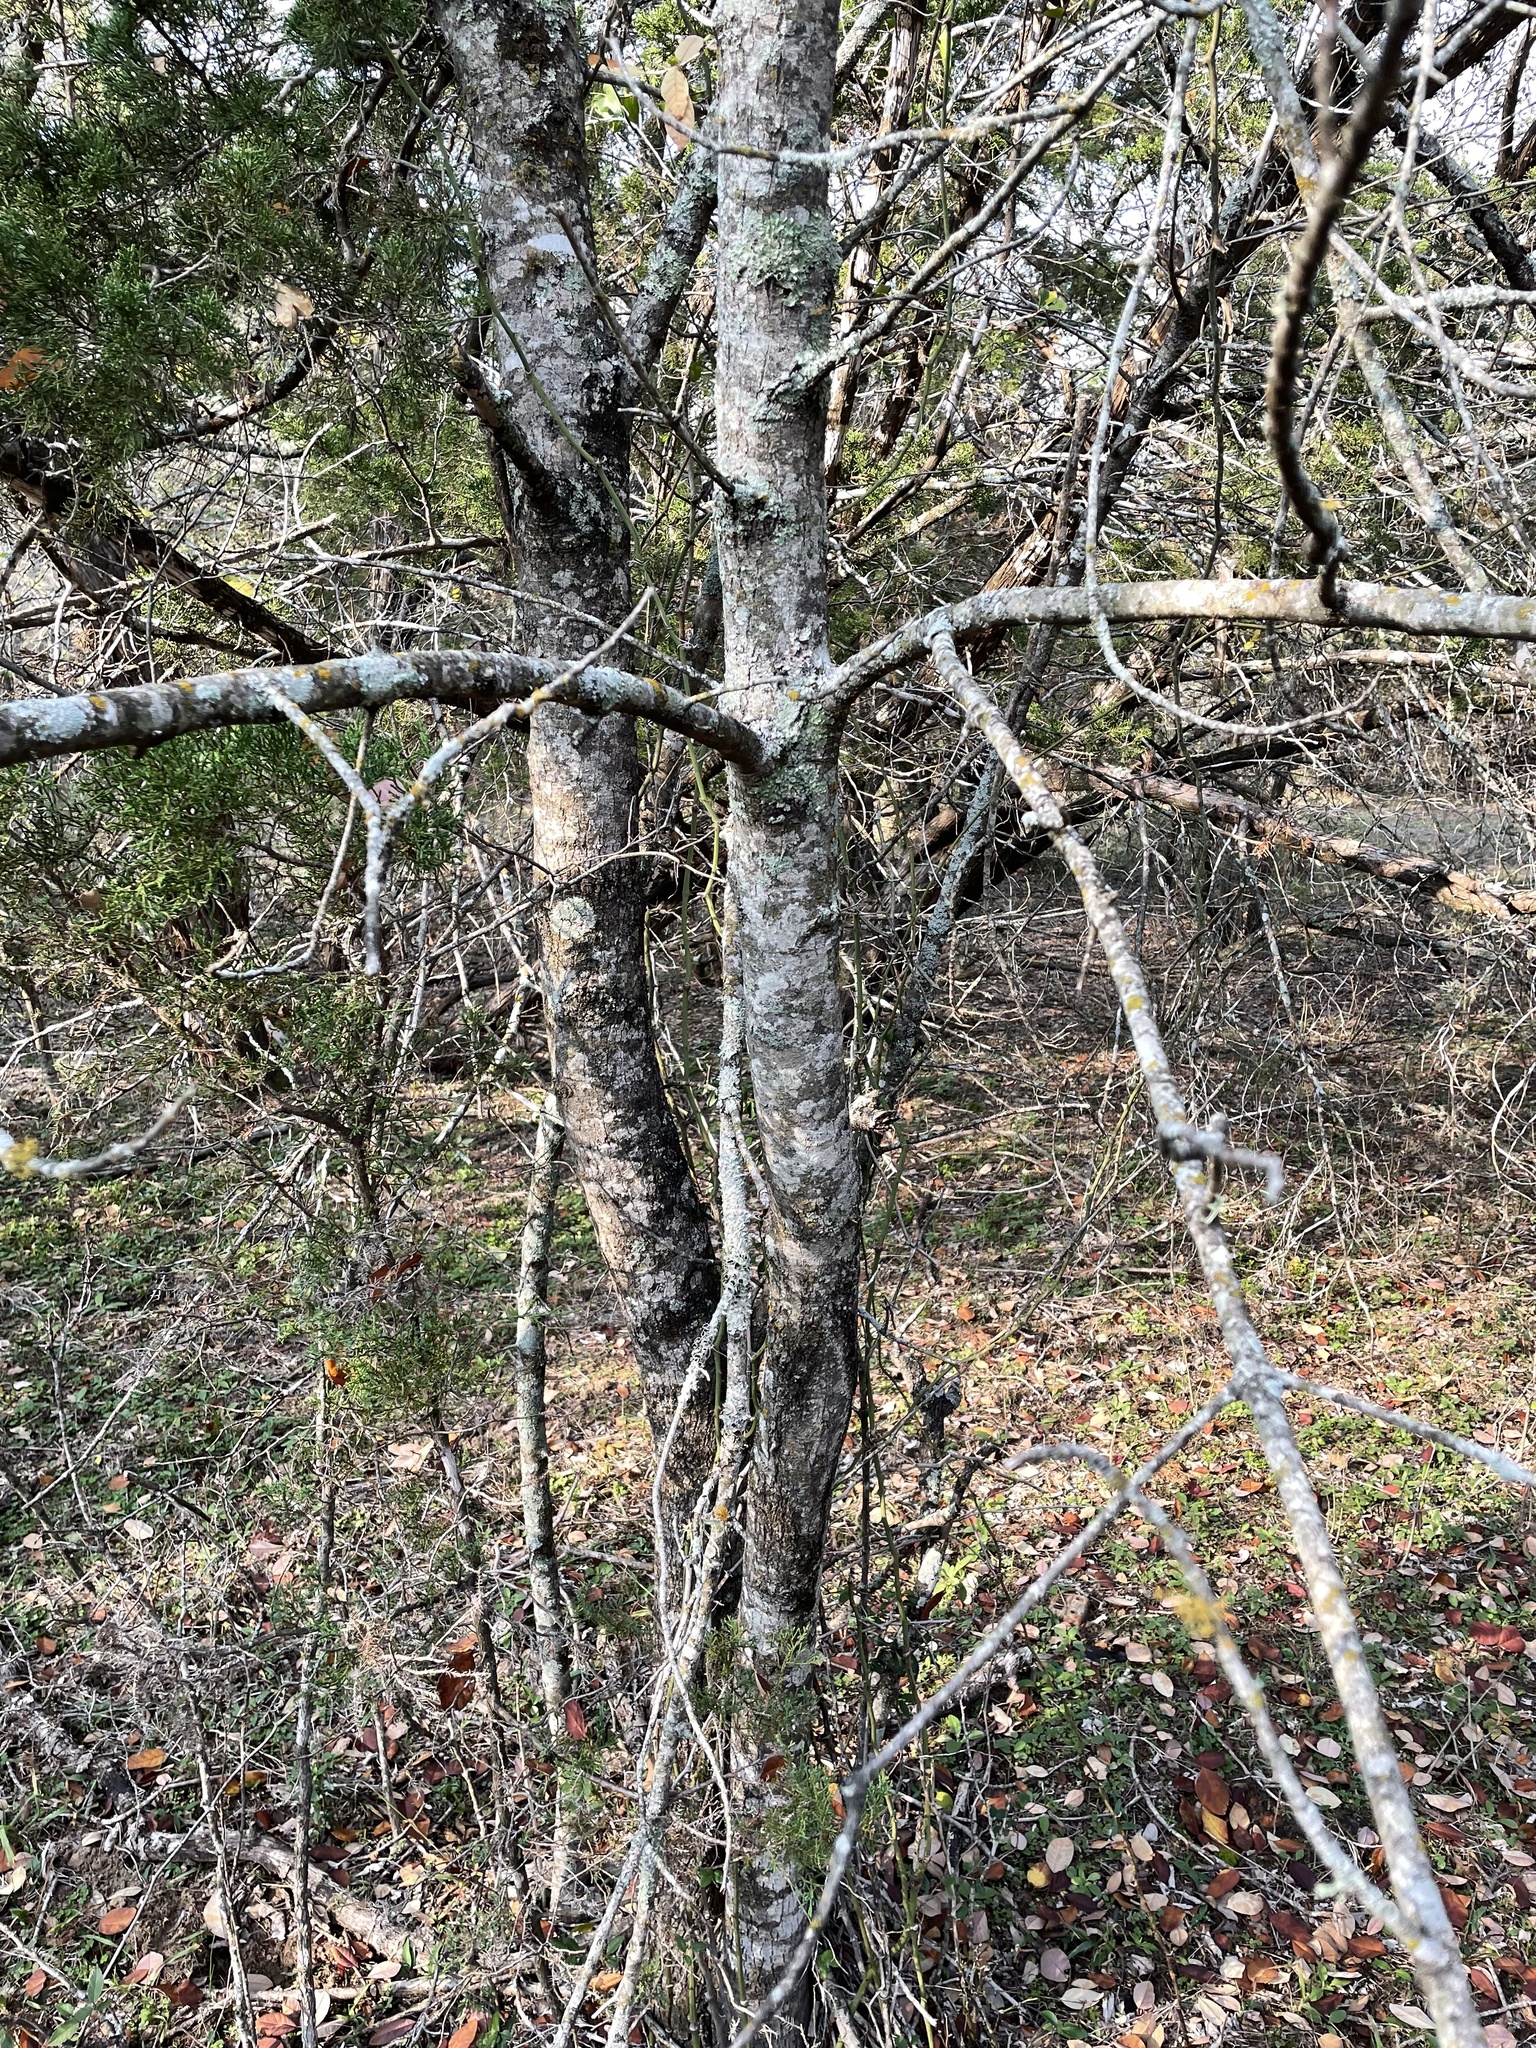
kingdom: Plantae
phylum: Tracheophyta
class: Magnoliopsida
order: Lamiales
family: Oleaceae
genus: Fraxinus
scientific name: Fraxinus albicans
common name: Texas ash
